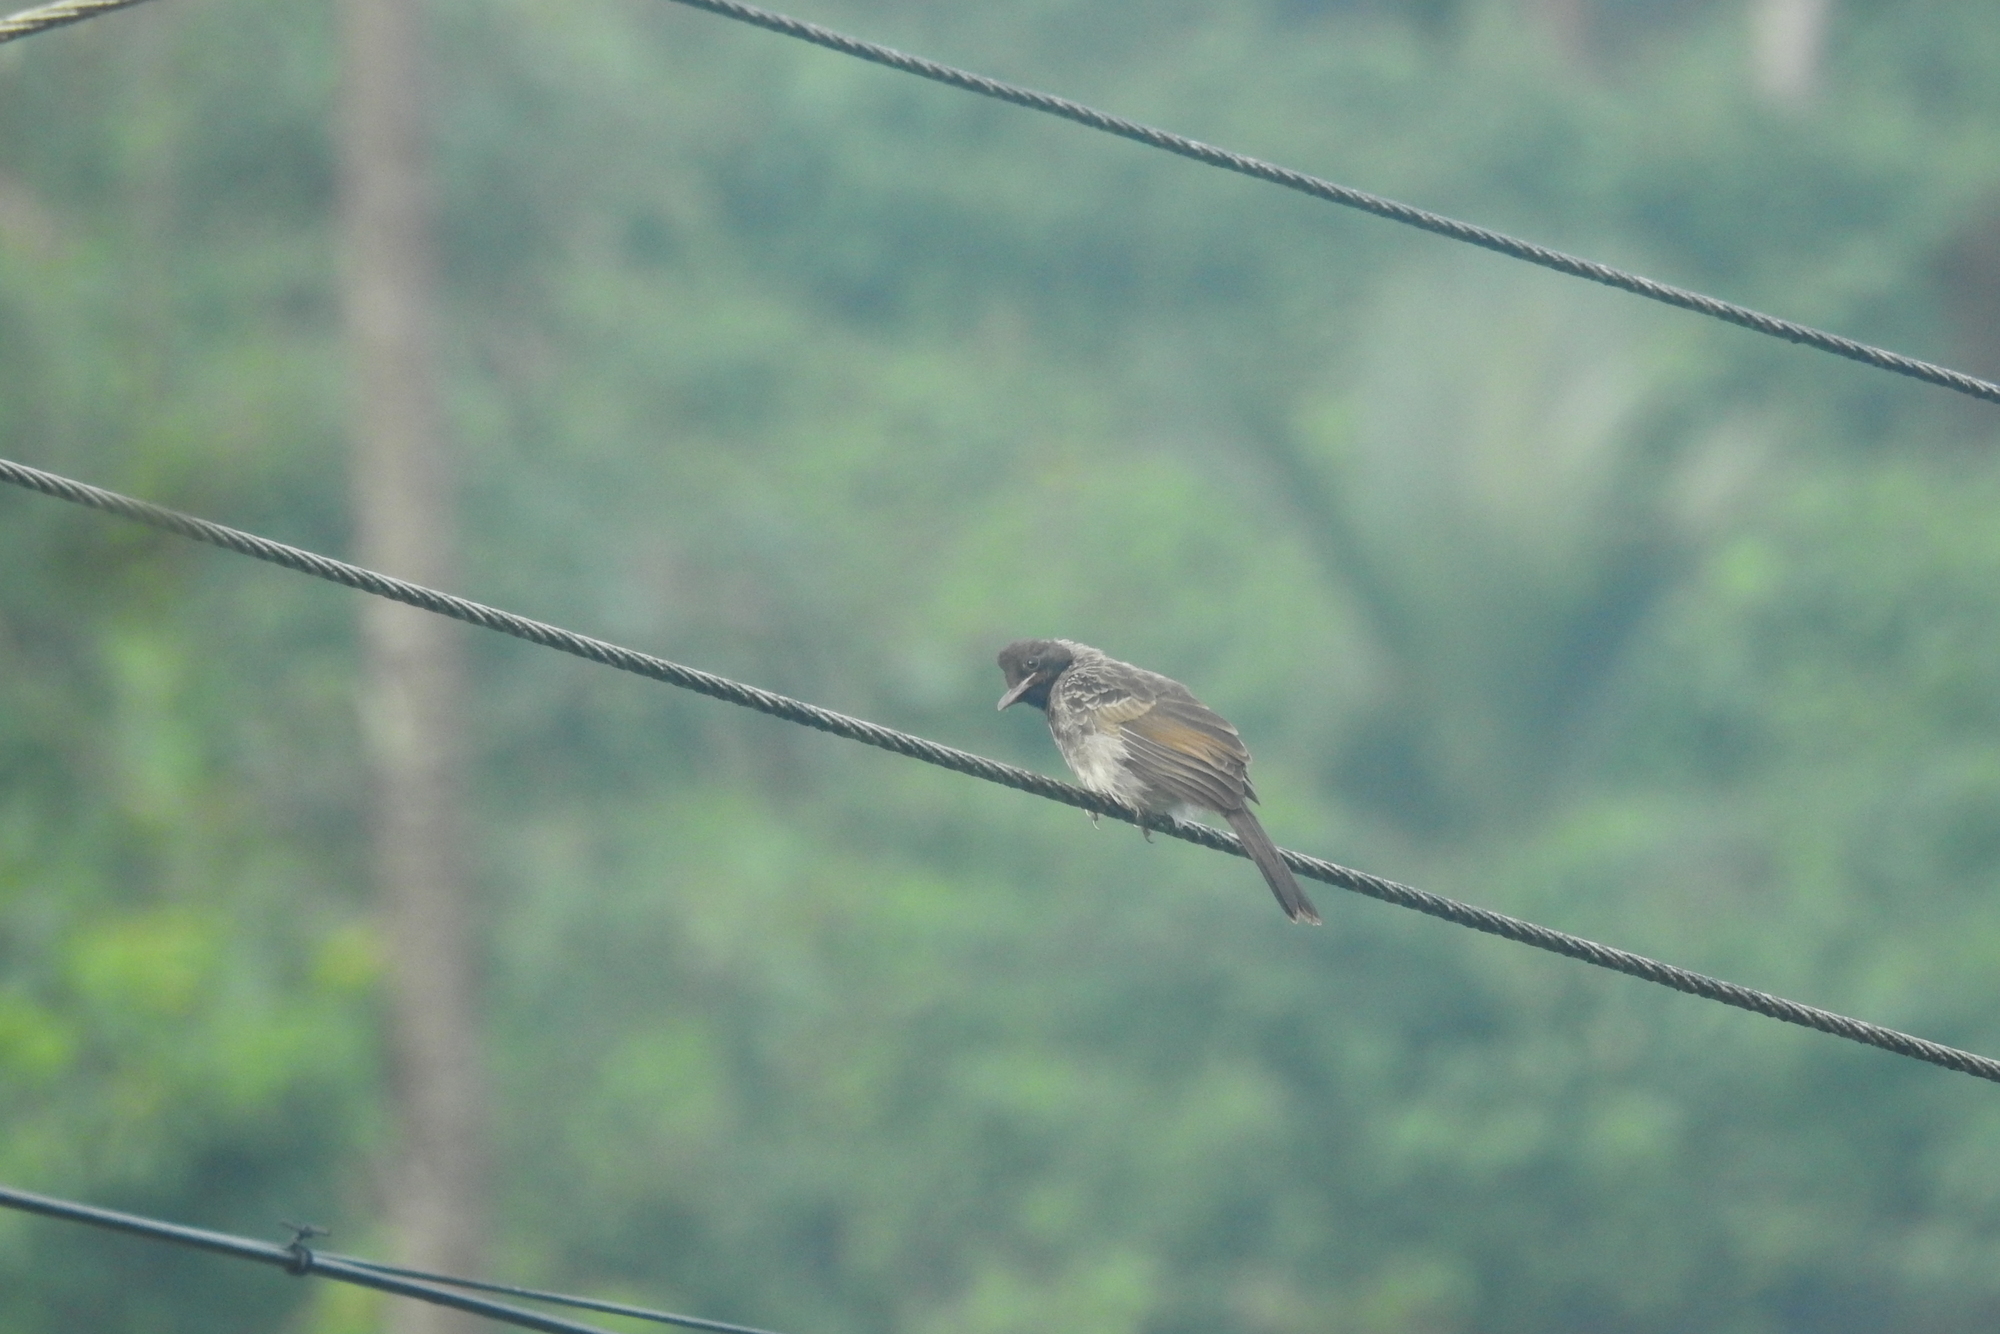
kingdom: Animalia
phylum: Chordata
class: Aves
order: Passeriformes
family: Pycnonotidae
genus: Pycnonotus
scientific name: Pycnonotus cafer
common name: Red-vented bulbul
